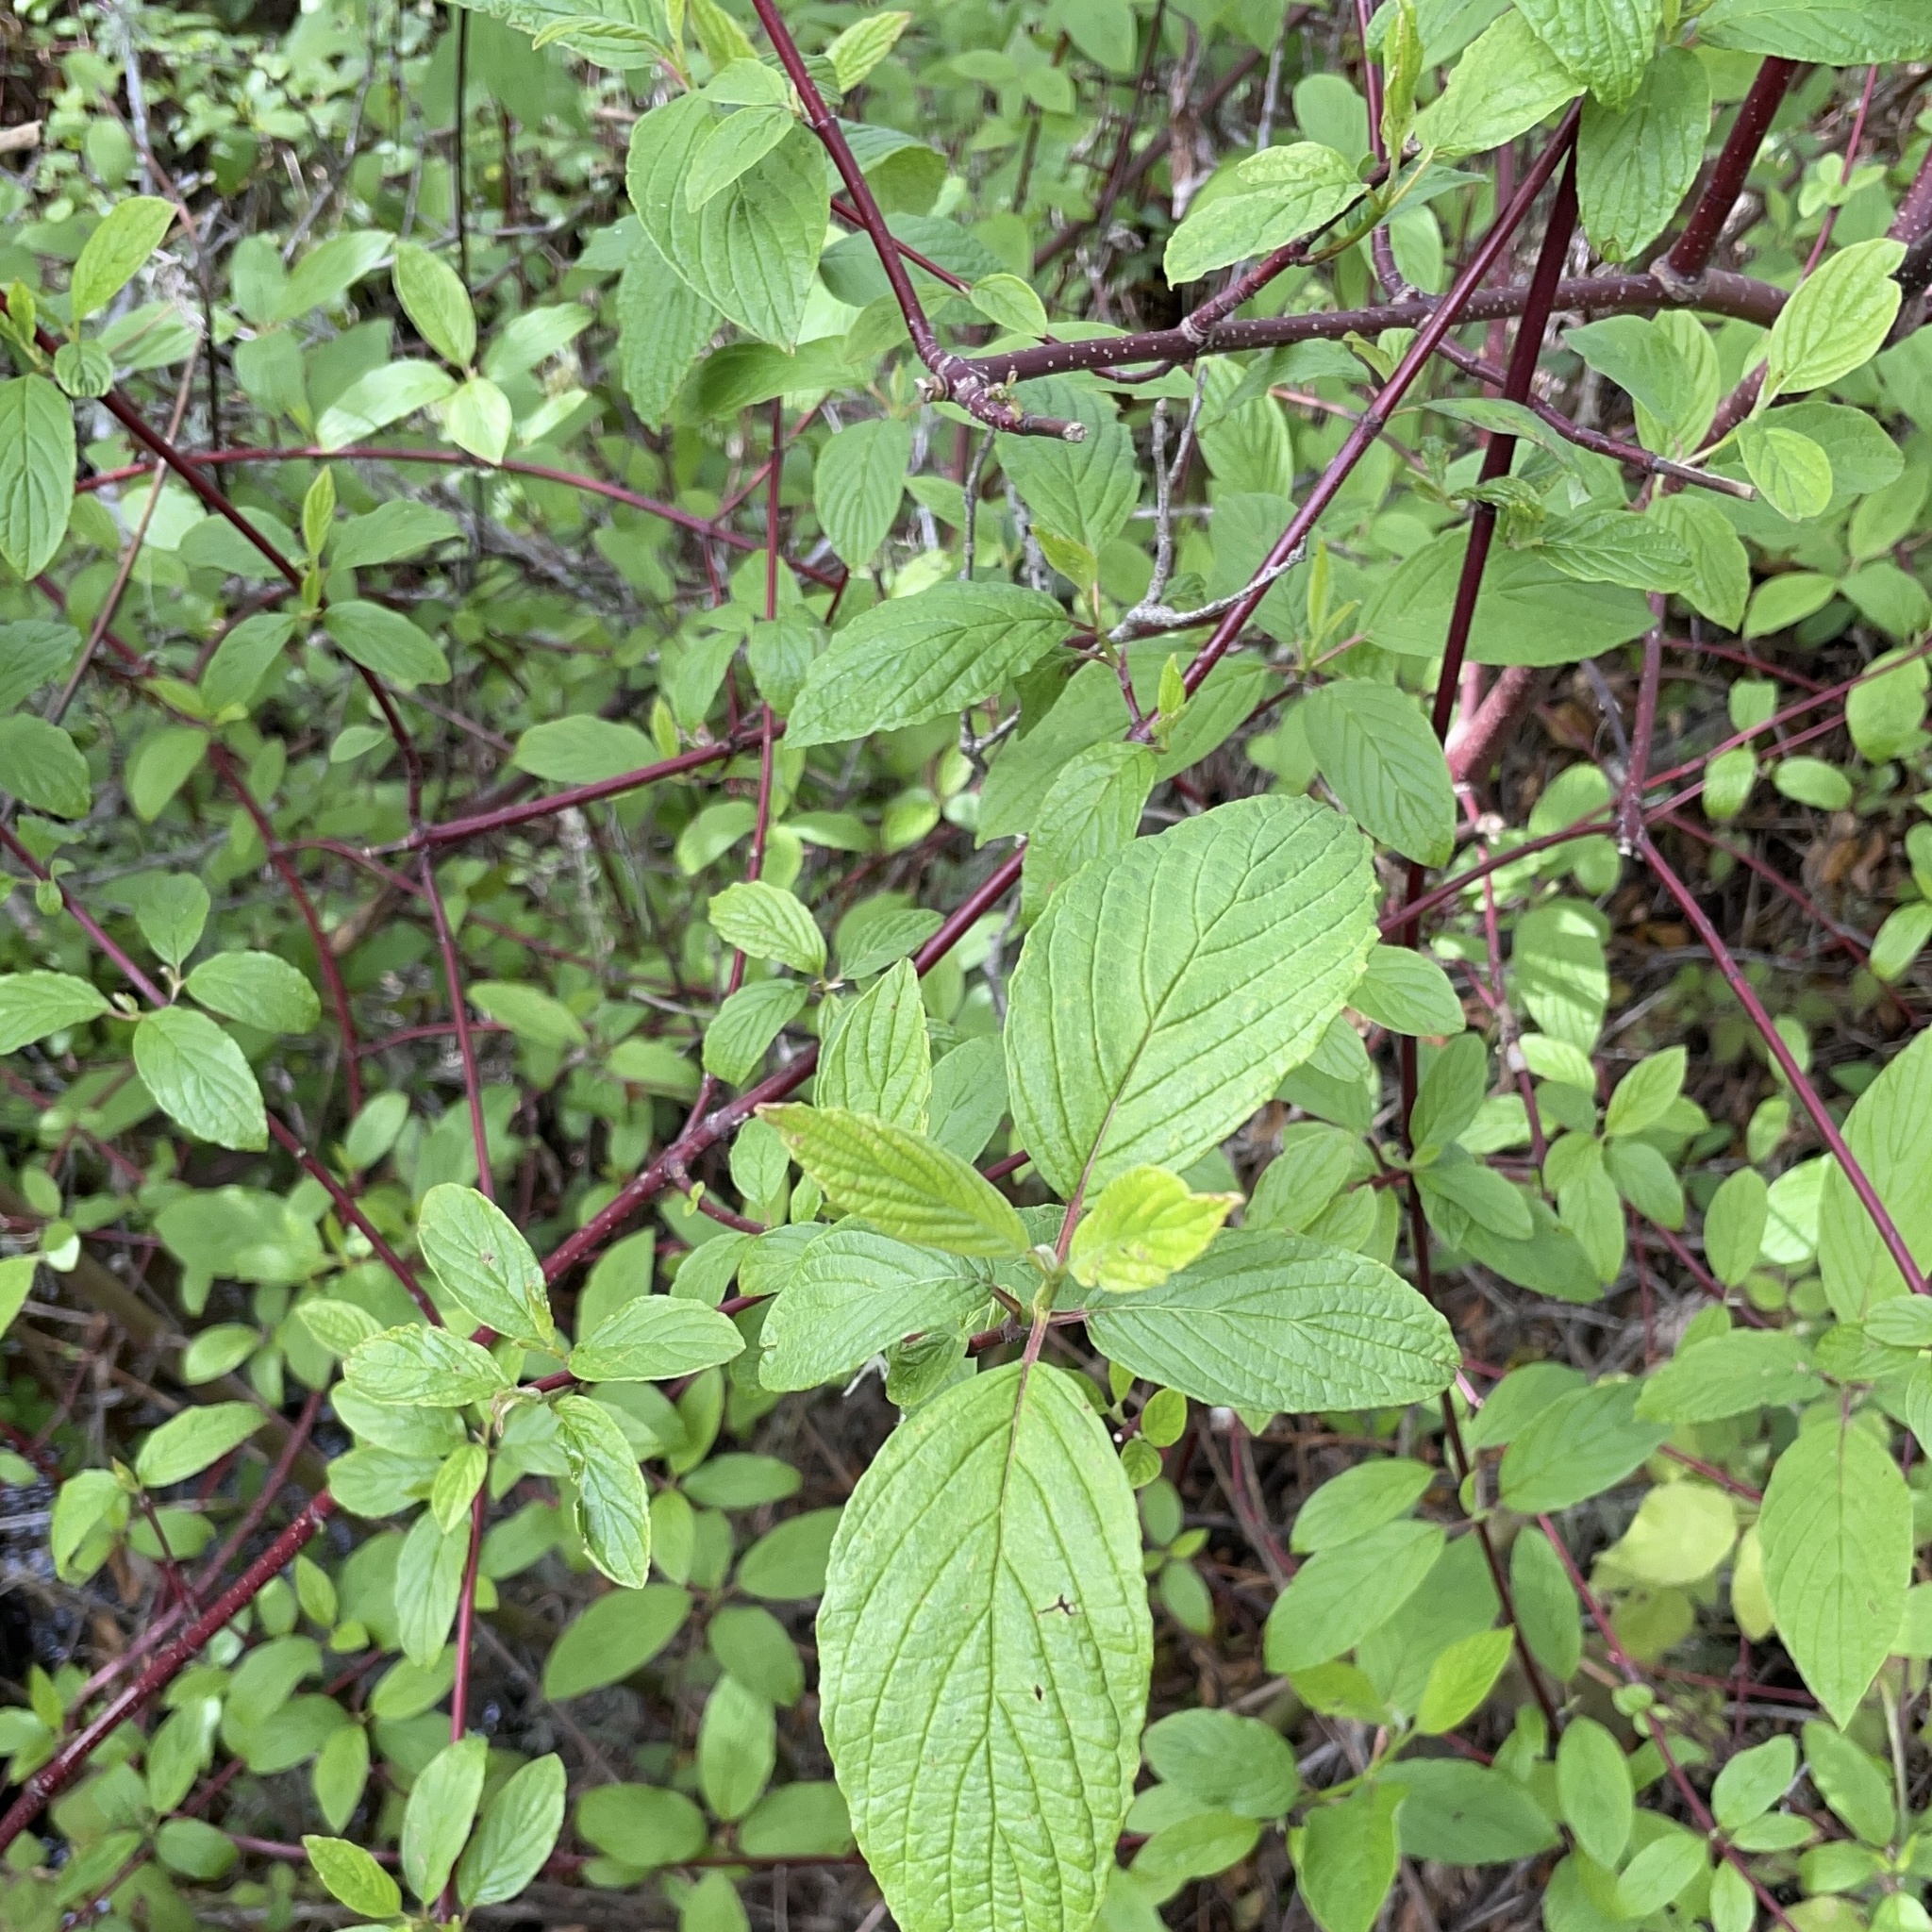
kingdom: Plantae
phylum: Tracheophyta
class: Magnoliopsida
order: Cornales
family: Cornaceae
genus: Cornus
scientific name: Cornus sericea
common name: Red-osier dogwood
